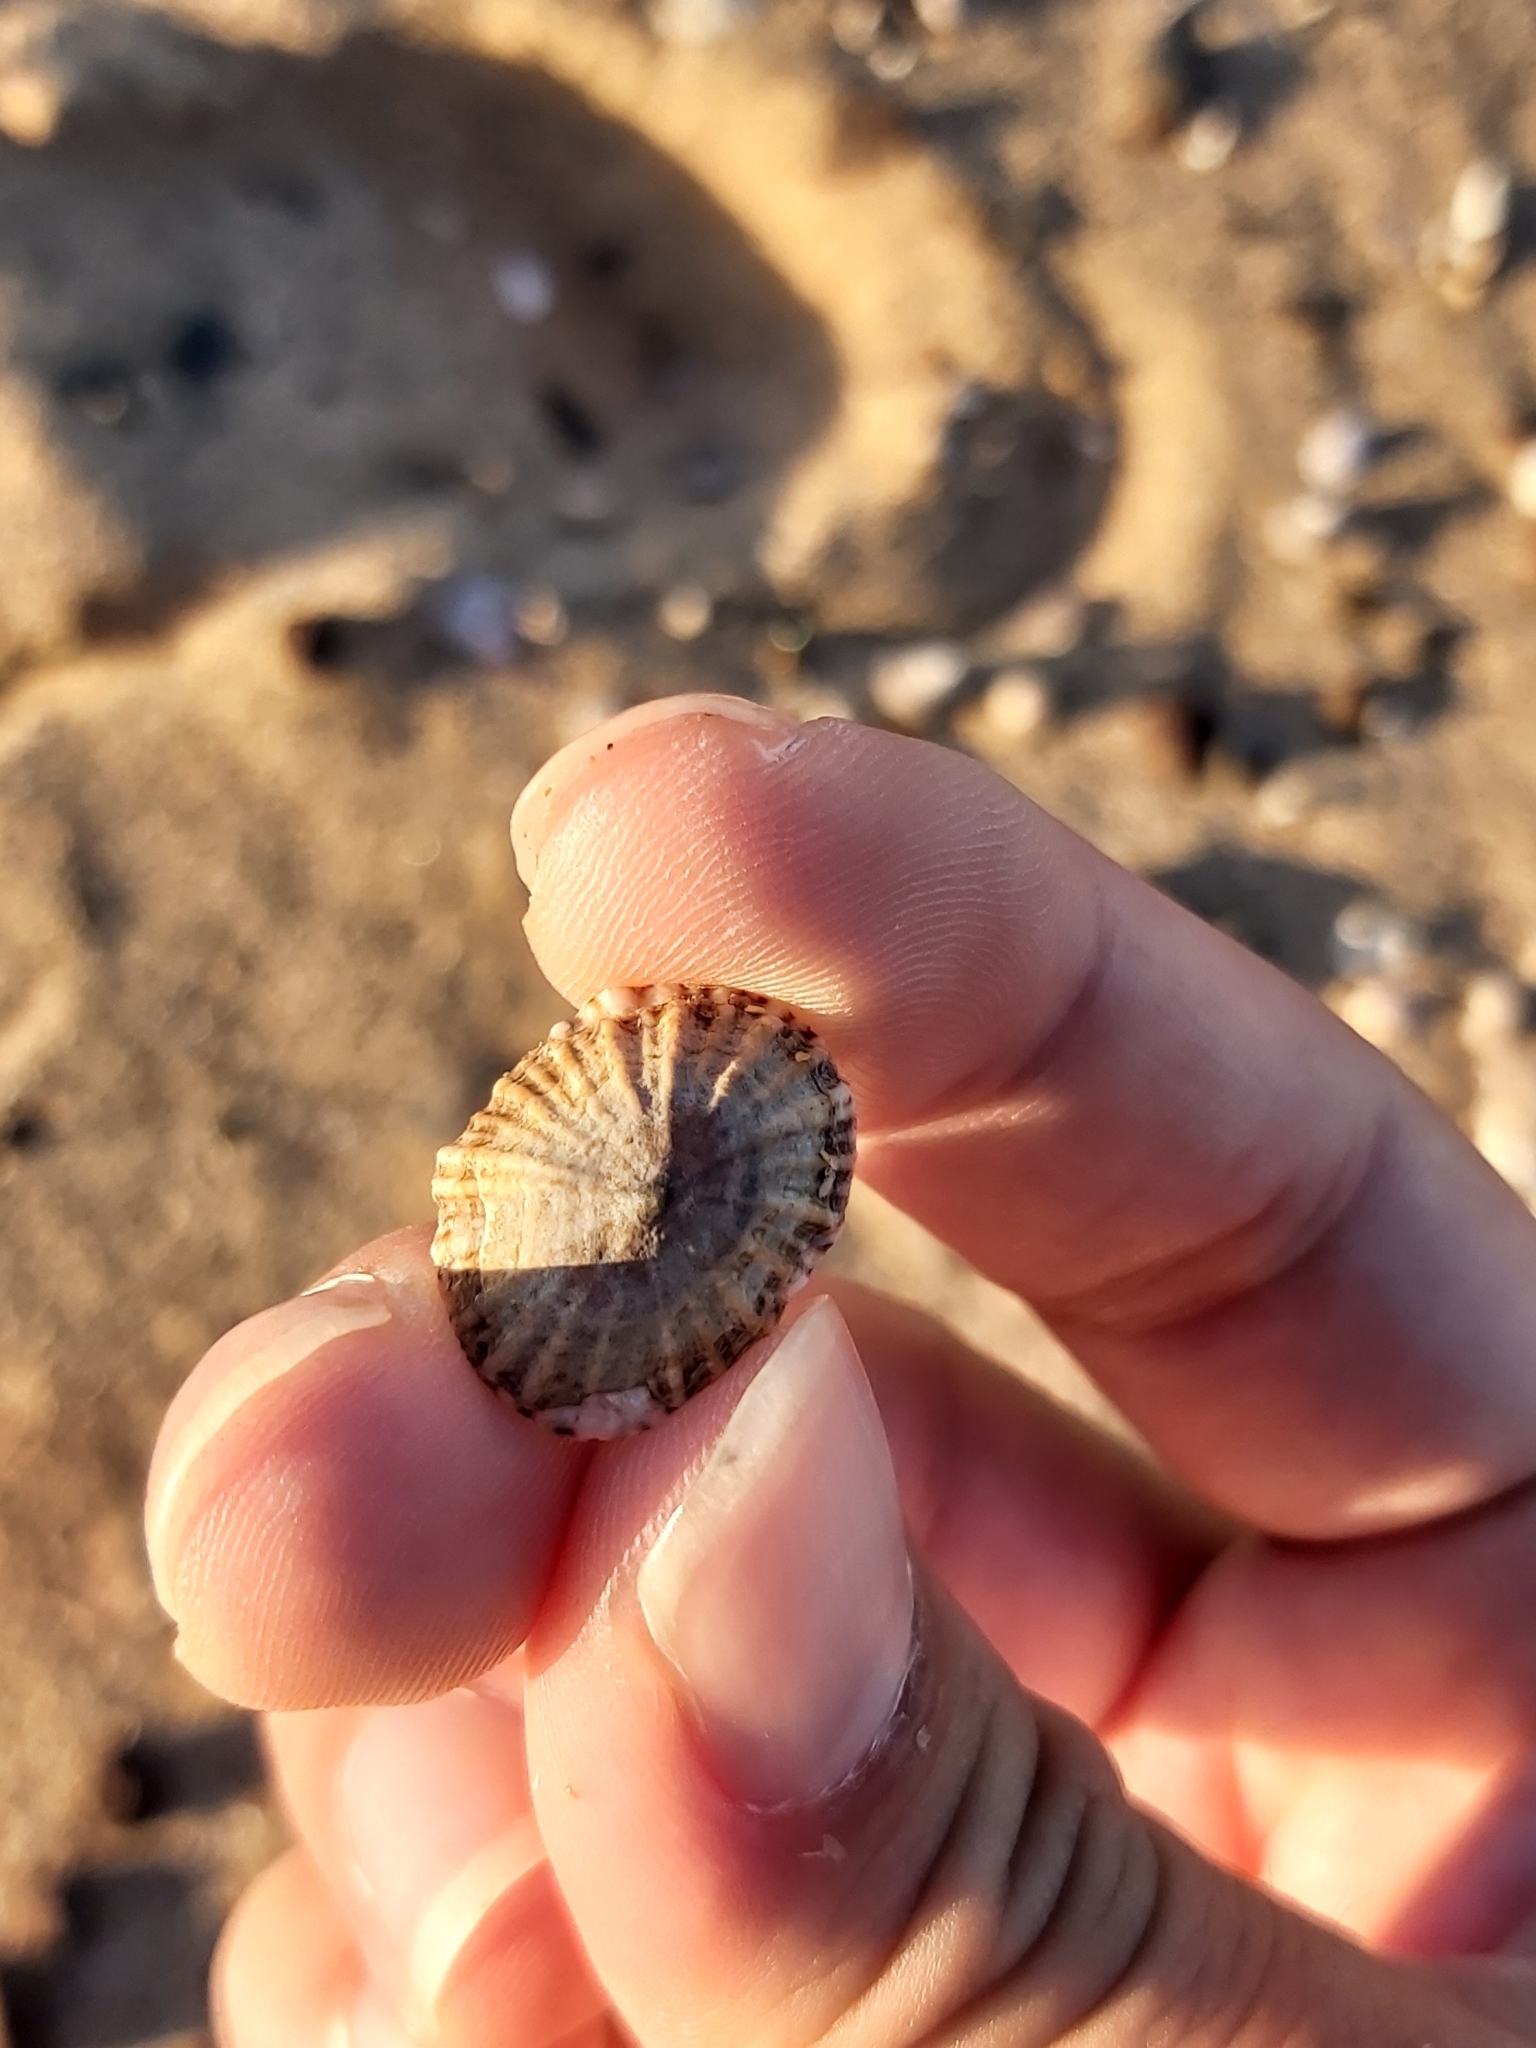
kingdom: Animalia
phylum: Mollusca
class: Gastropoda
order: Siphonariida
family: Siphonariidae
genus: Siphonaria
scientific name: Siphonaria denticulata
